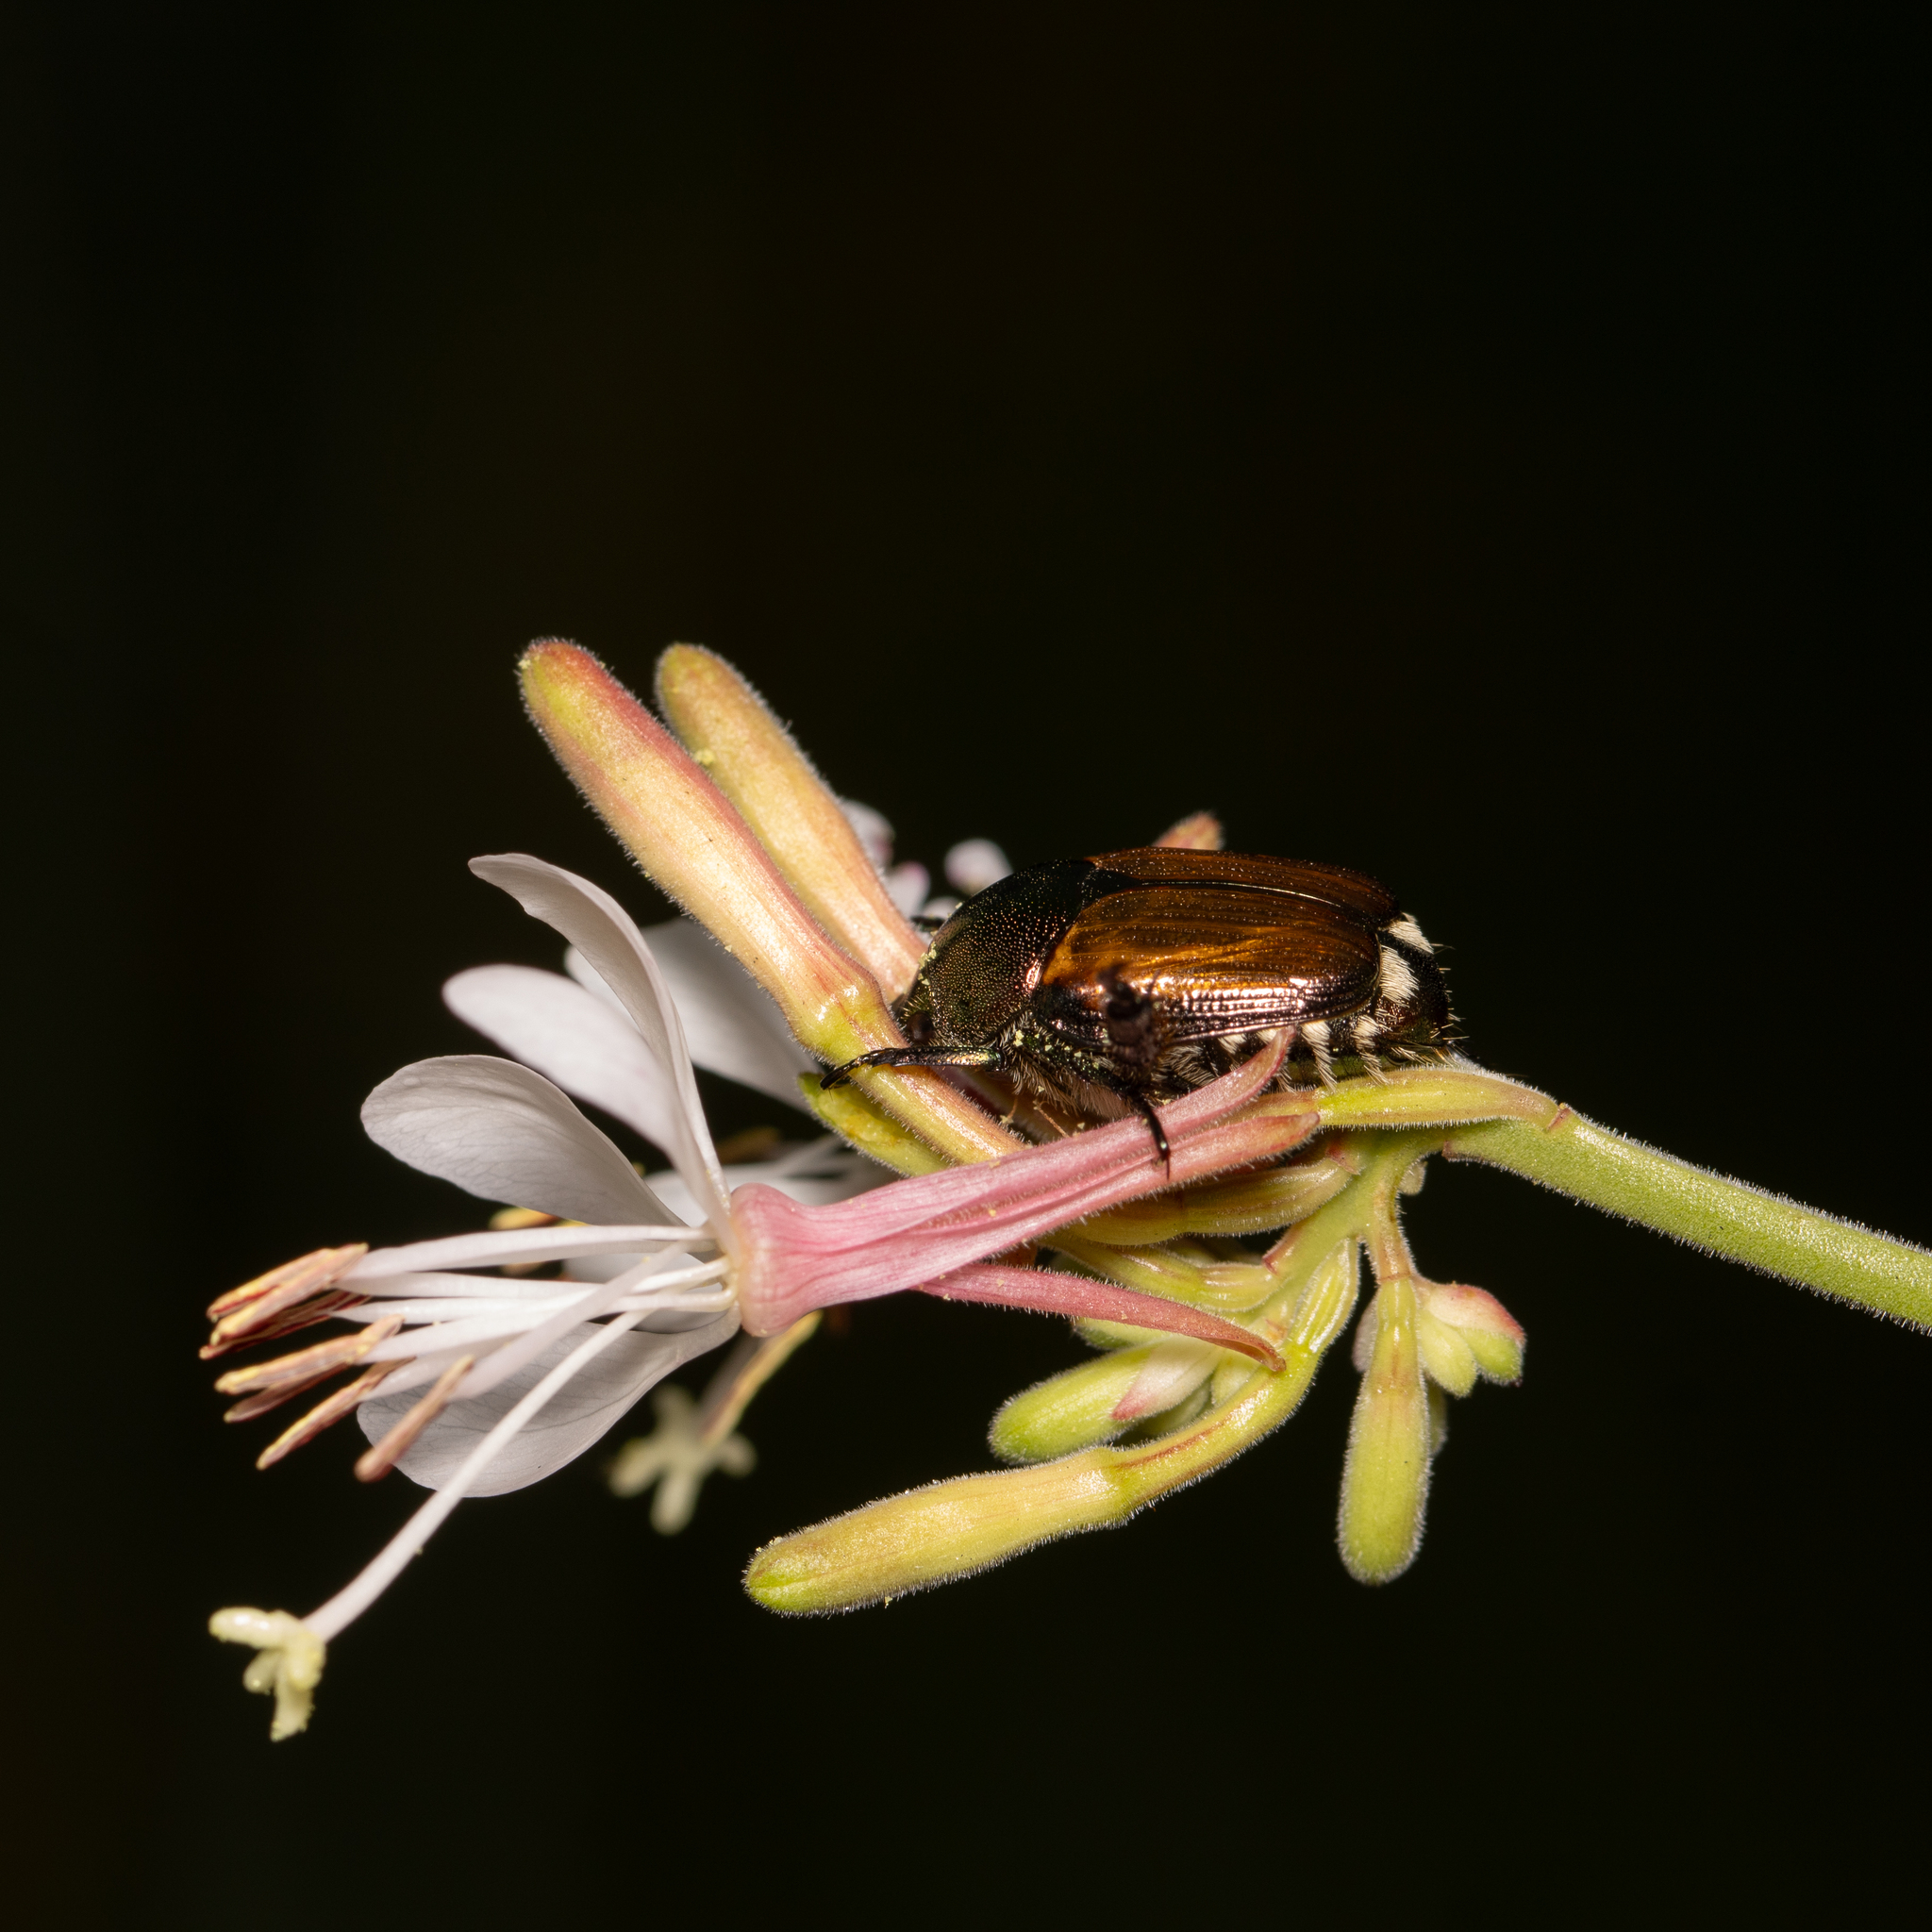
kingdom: Animalia
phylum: Arthropoda
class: Insecta
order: Coleoptera
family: Scarabaeidae
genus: Popillia
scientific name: Popillia japonica
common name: Japanese beetle
